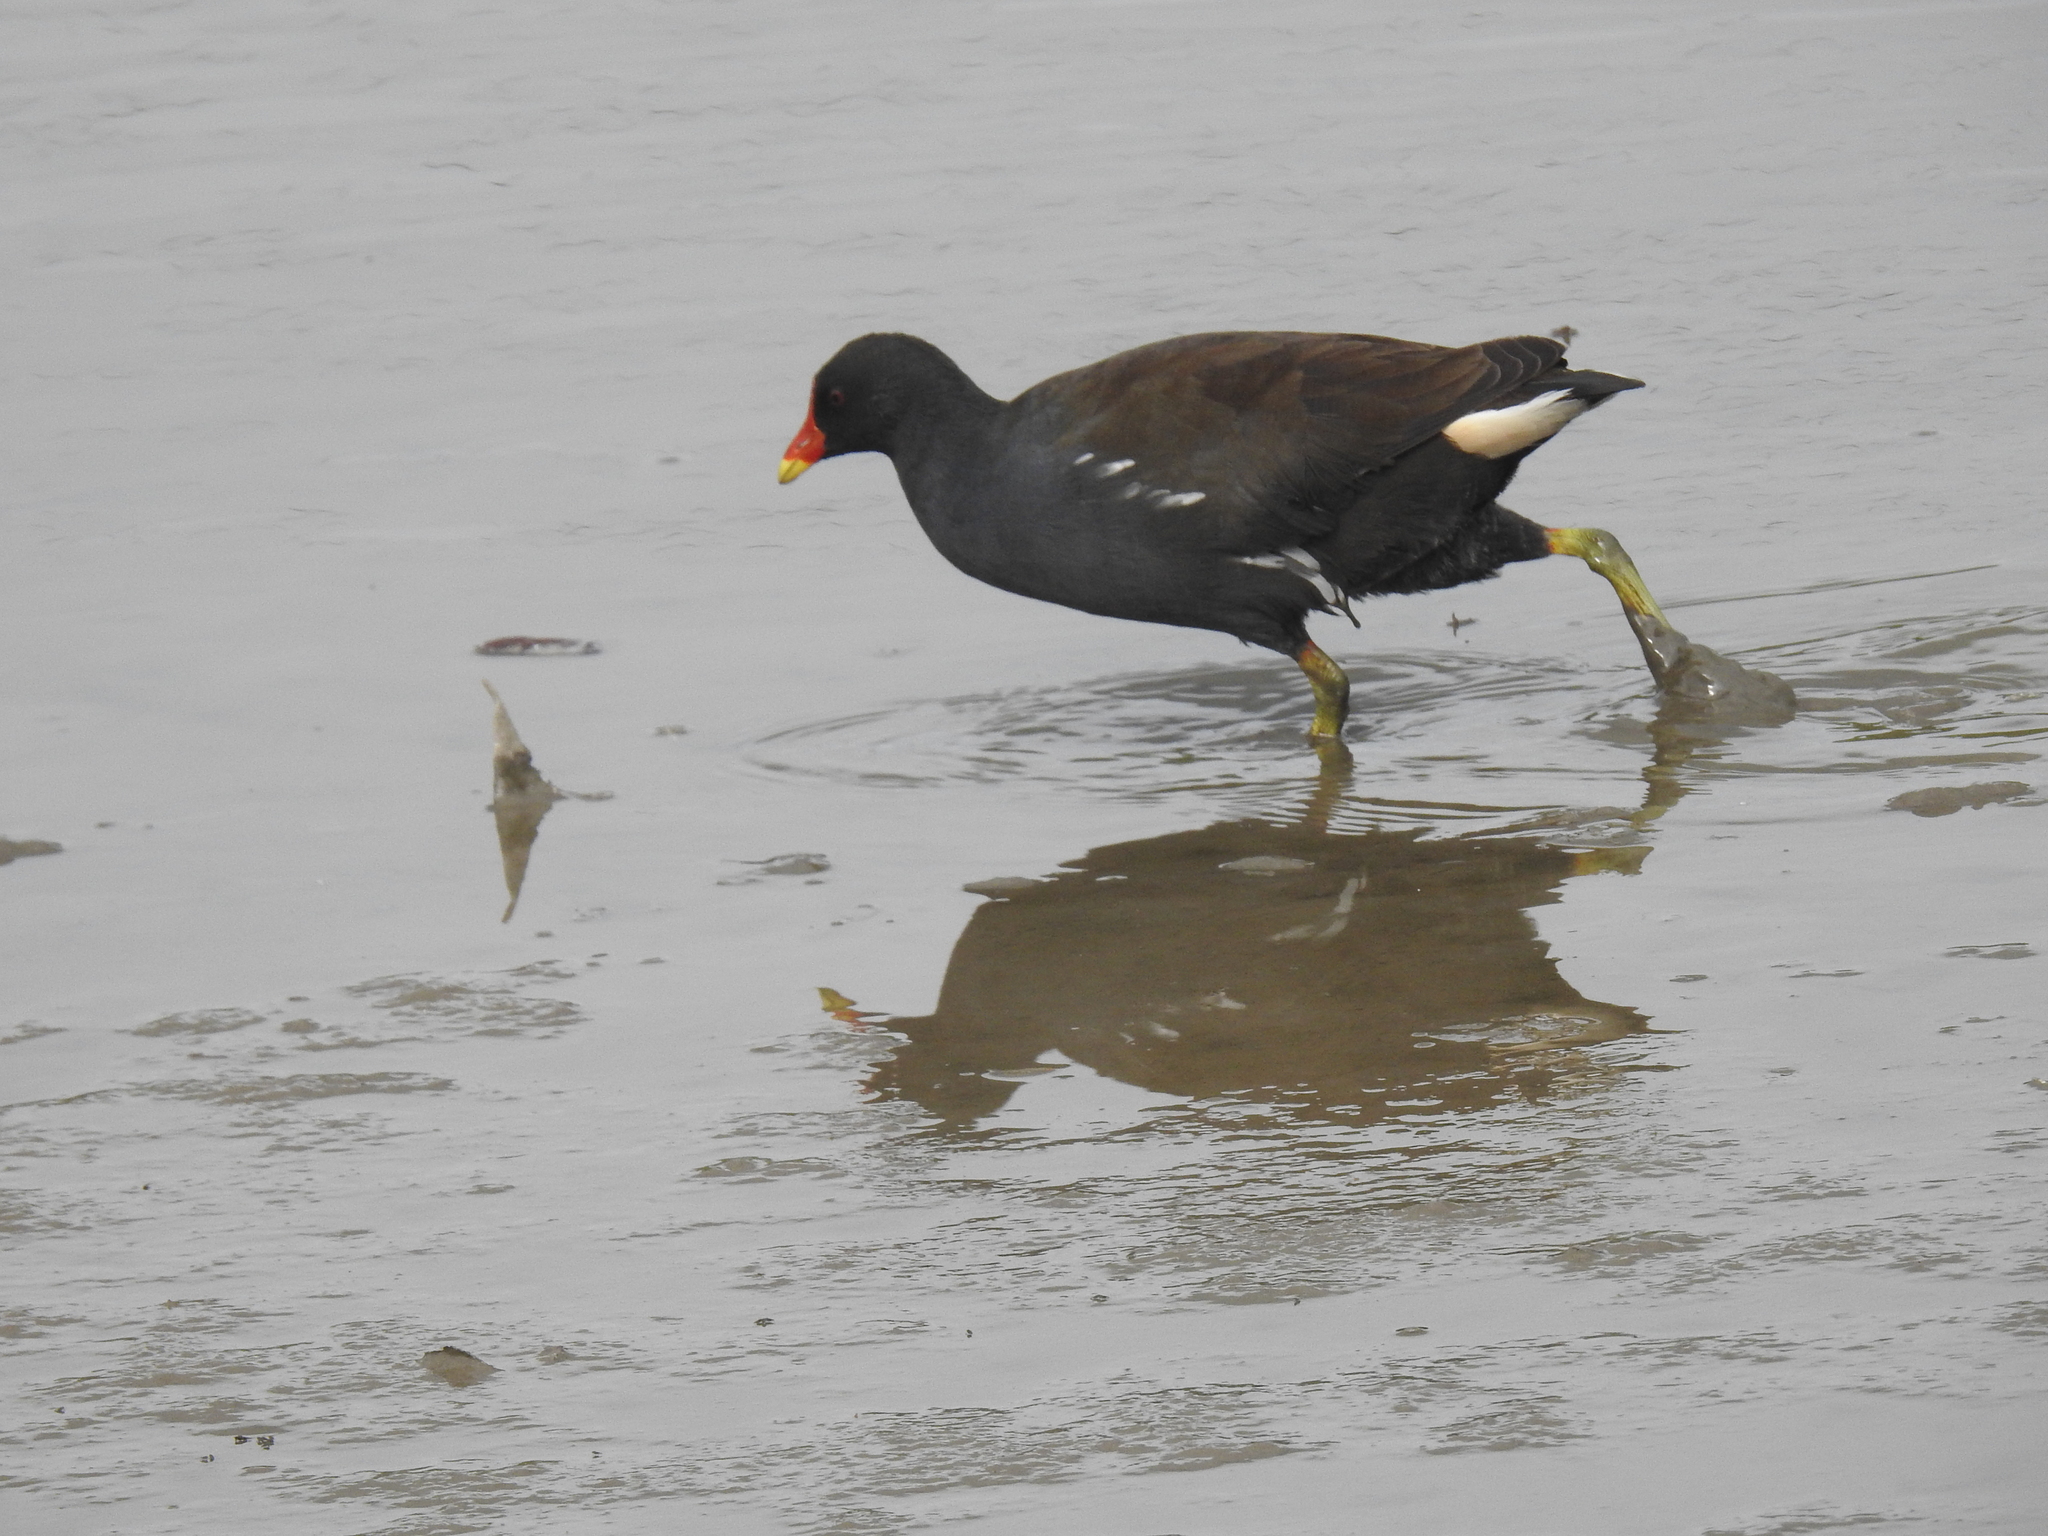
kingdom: Animalia
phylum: Chordata
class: Aves
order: Gruiformes
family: Rallidae
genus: Gallinula
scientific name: Gallinula chloropus
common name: Common moorhen
